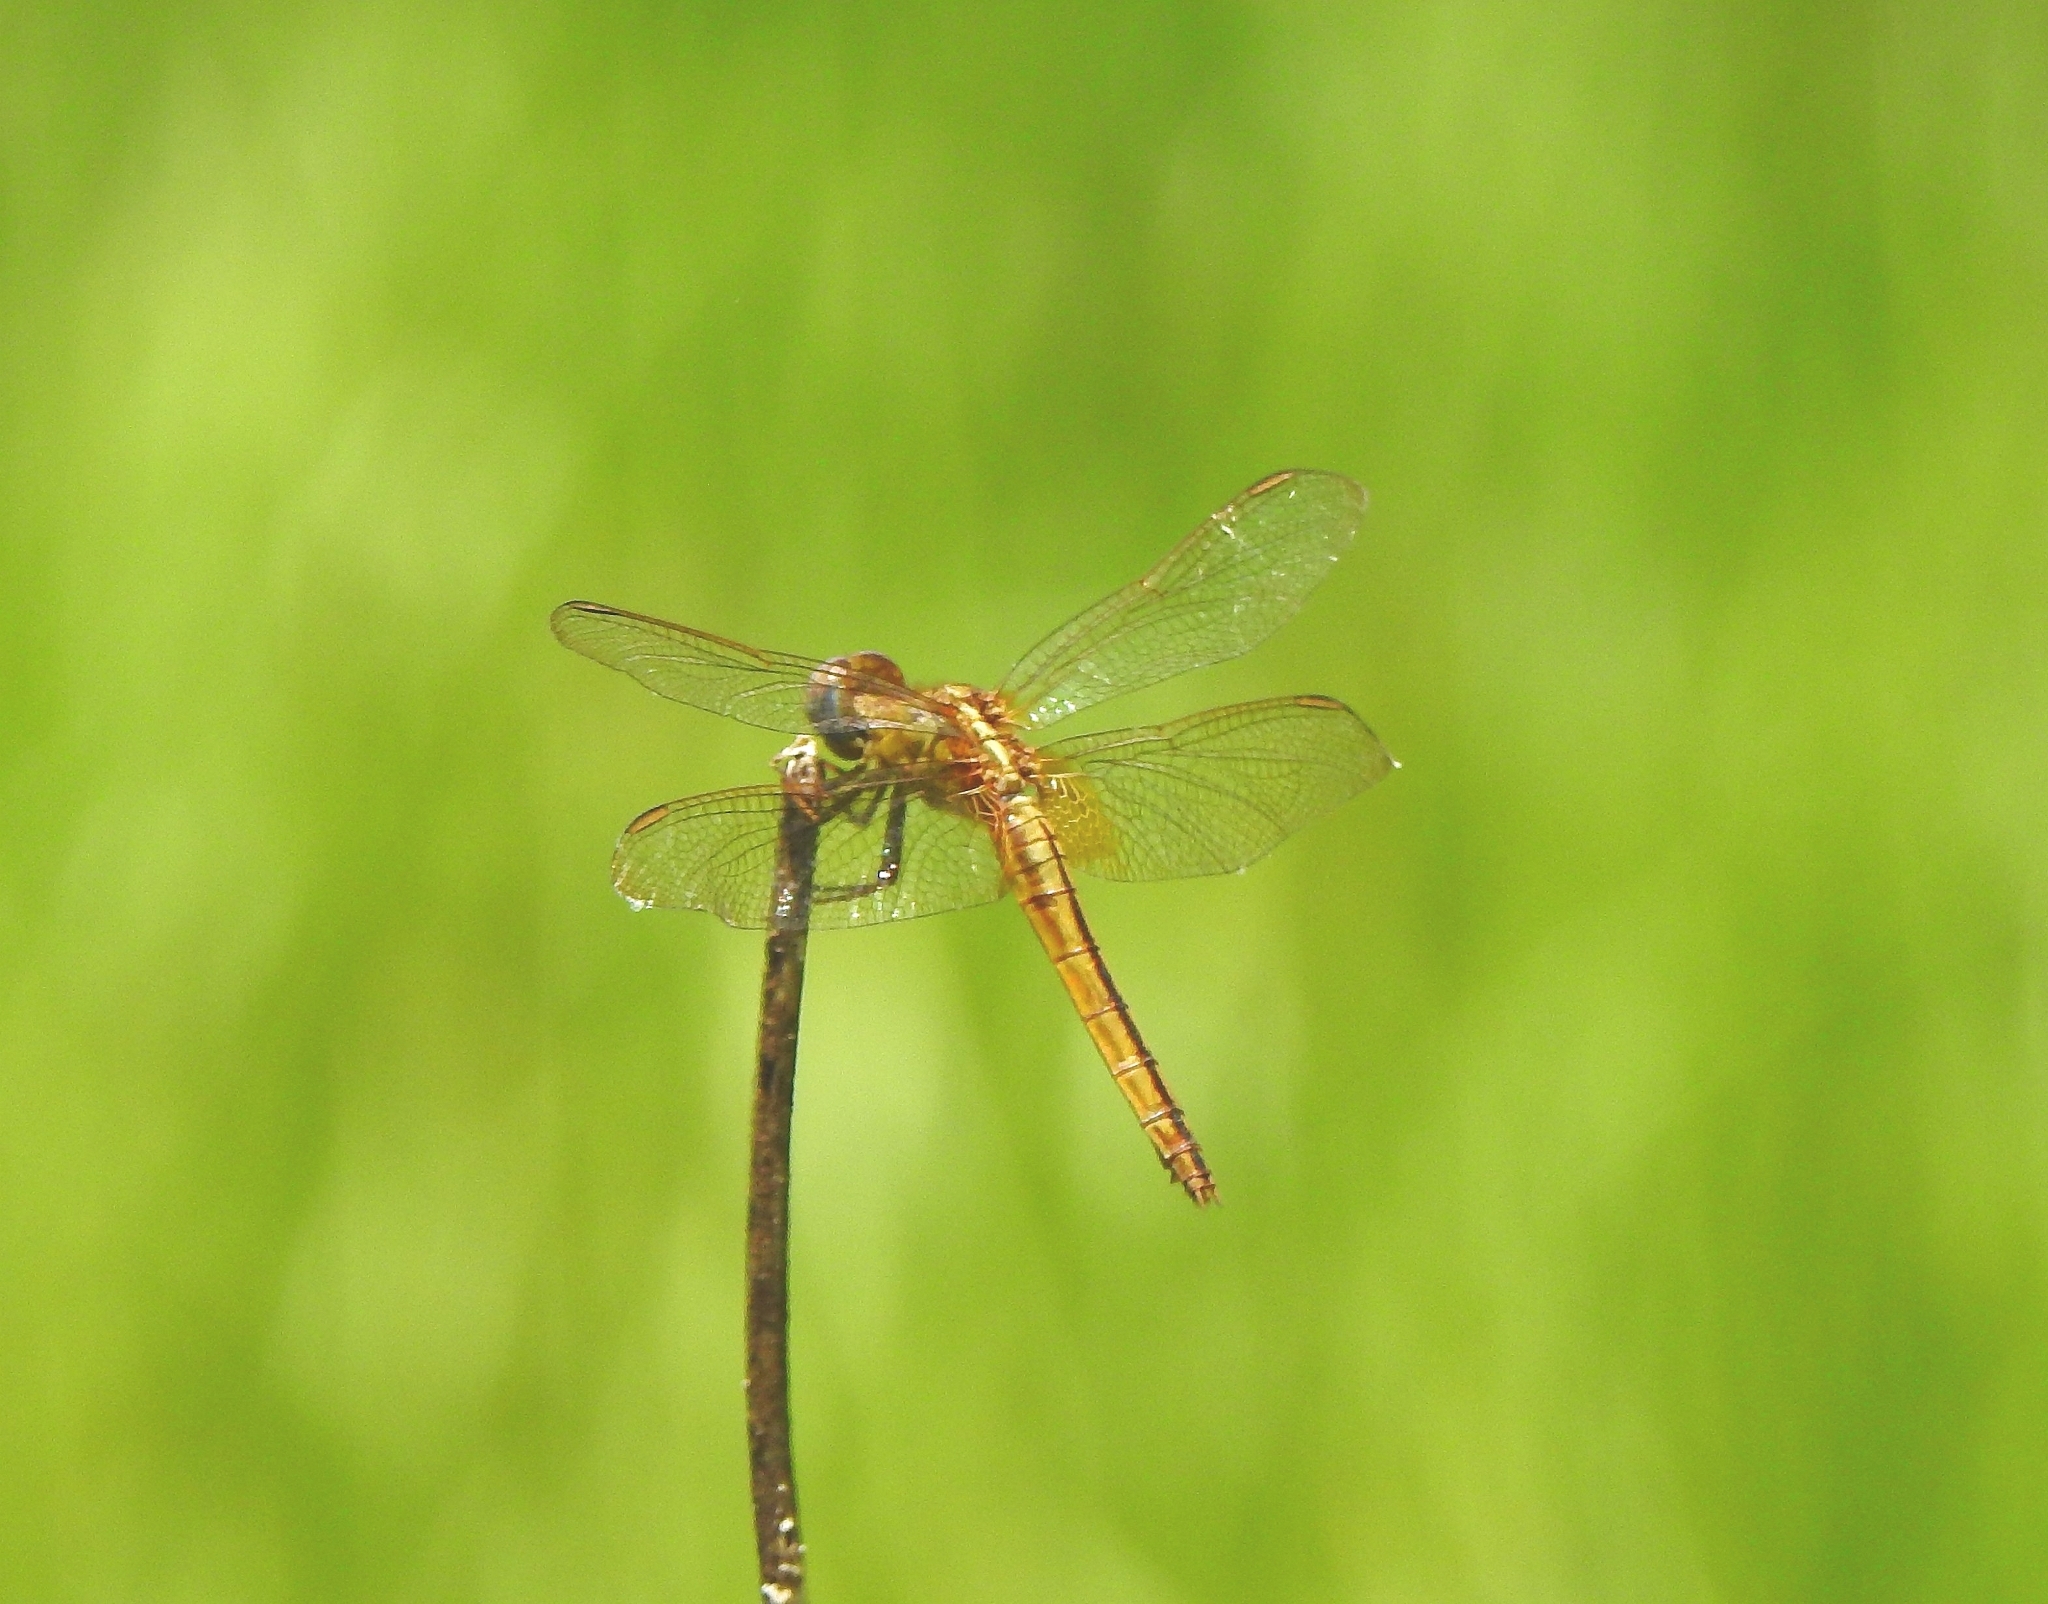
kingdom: Animalia
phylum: Arthropoda
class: Insecta
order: Odonata
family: Libellulidae
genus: Crocothemis
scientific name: Crocothemis servilia
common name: Scarlet skimmer
